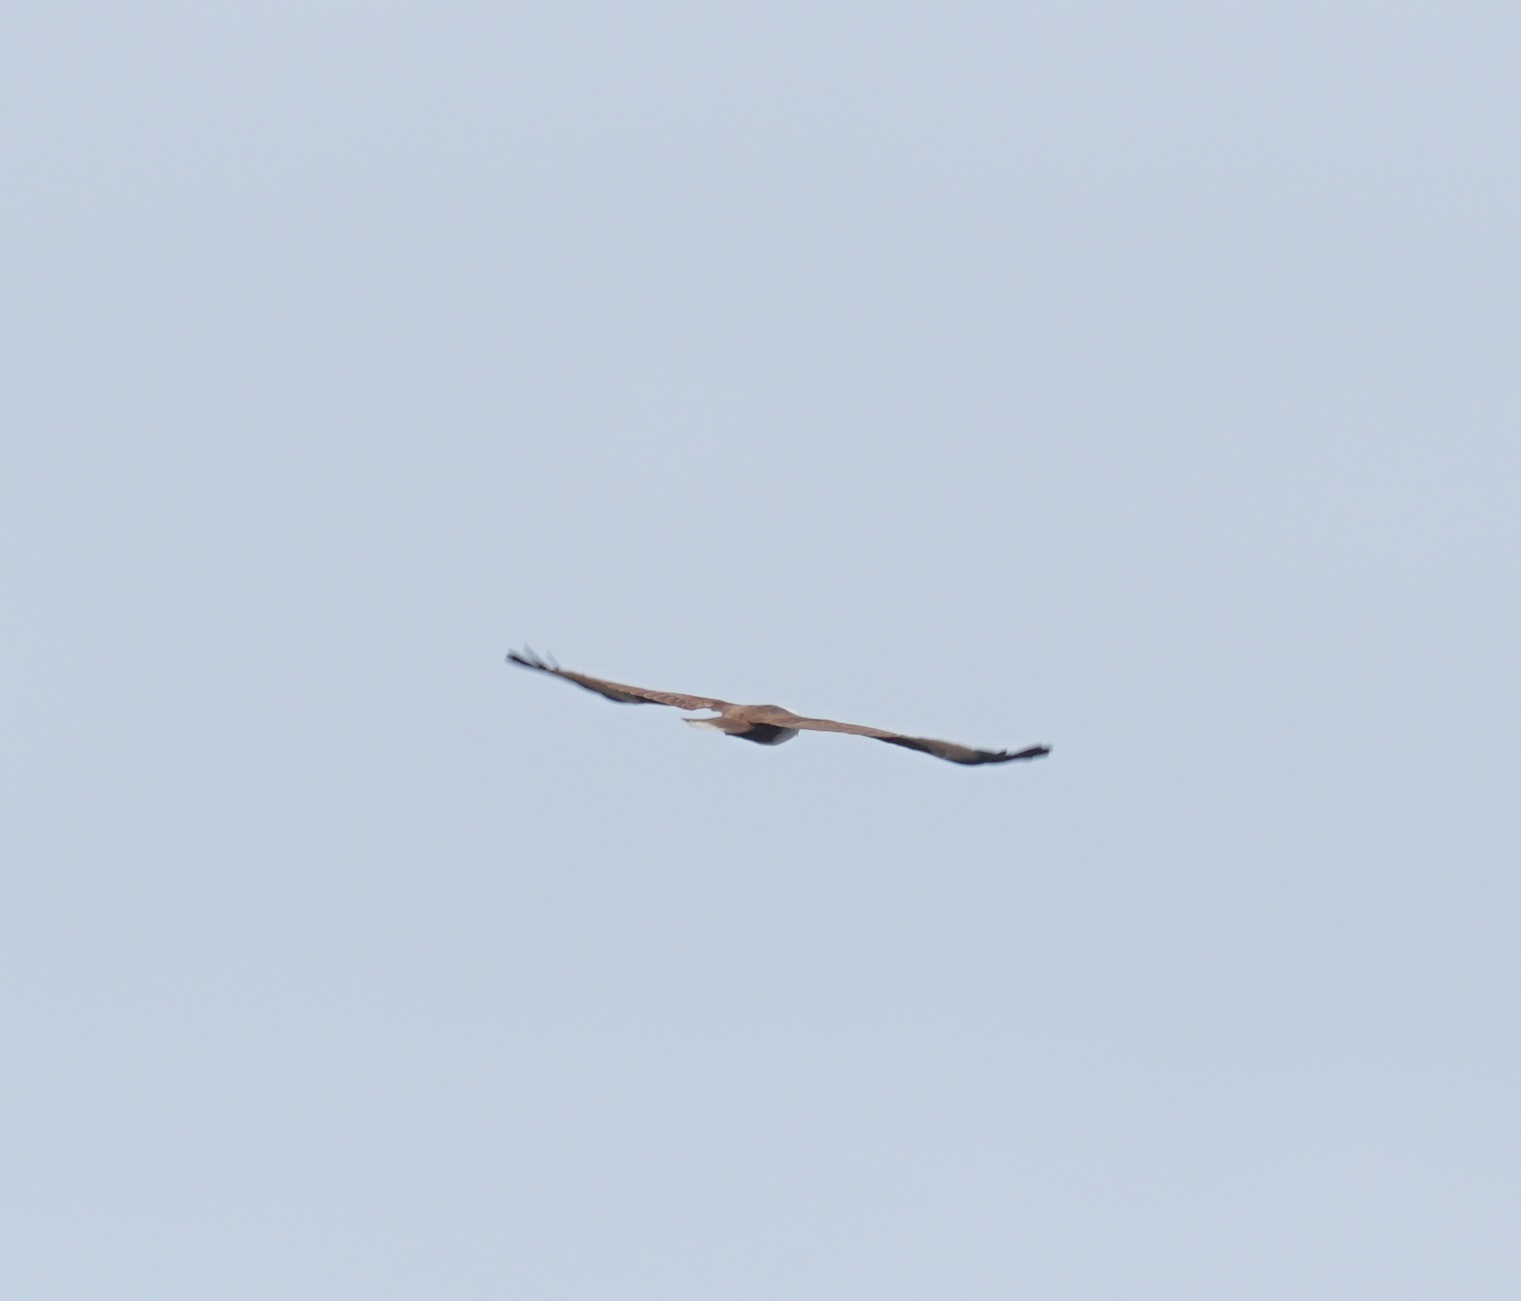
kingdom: Animalia
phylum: Chordata
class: Aves
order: Accipitriformes
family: Accipitridae
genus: Haliastur
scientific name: Haliastur indus
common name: Brahminy kite
